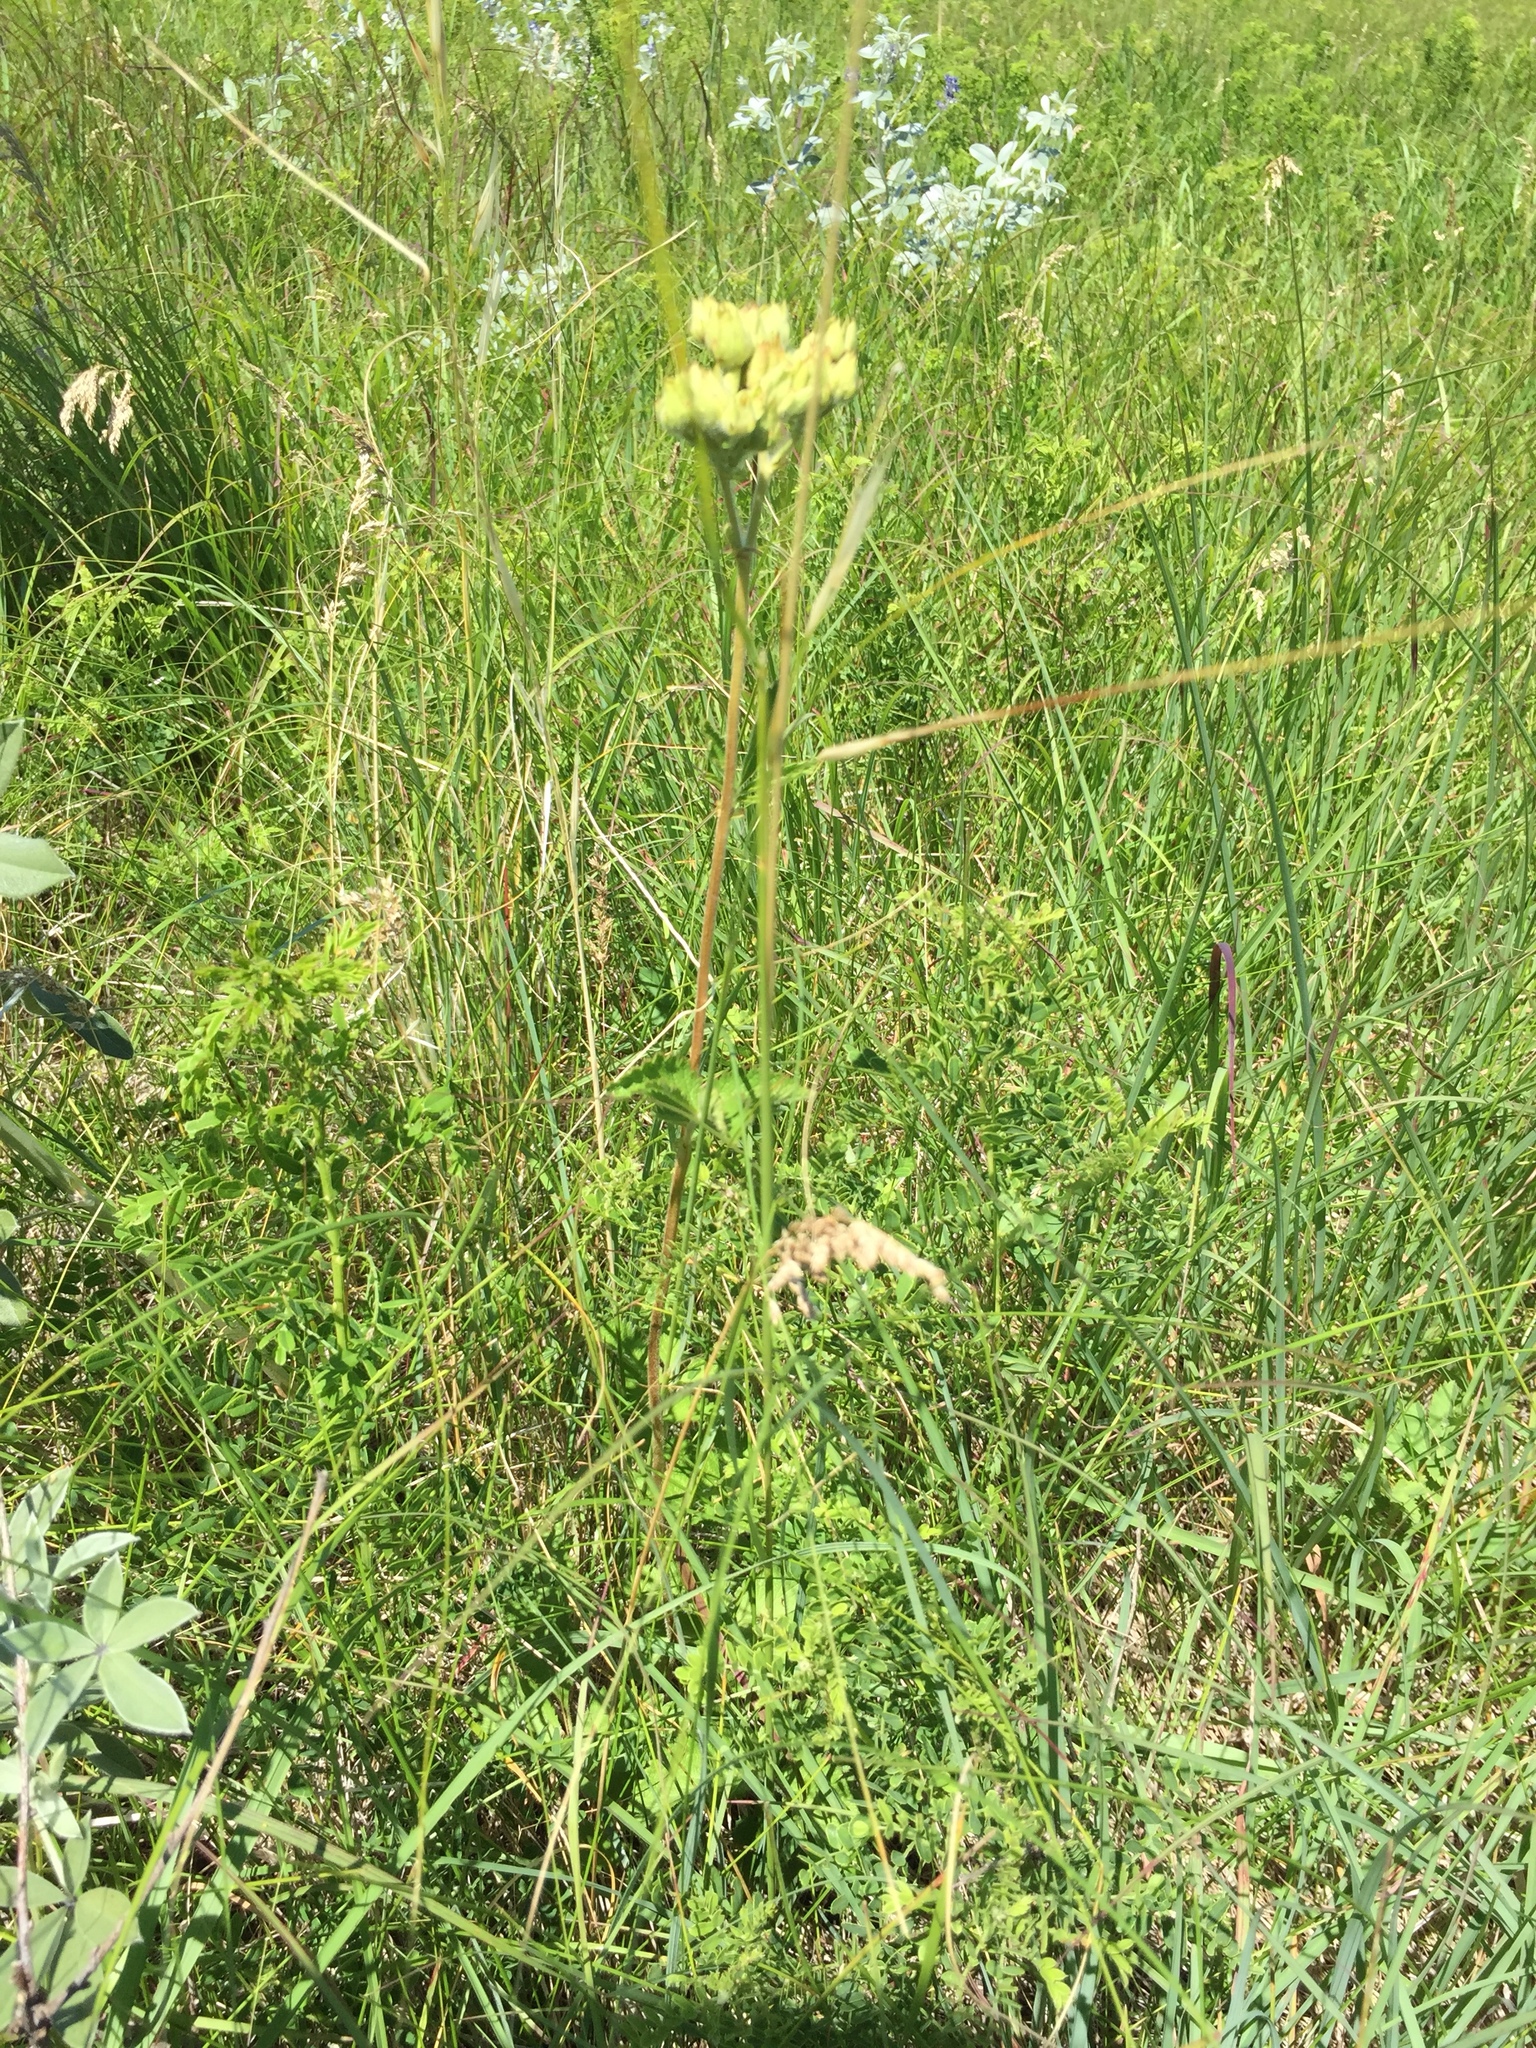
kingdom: Plantae
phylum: Tracheophyta
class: Magnoliopsida
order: Rosales
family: Rosaceae
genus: Drymocallis
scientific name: Drymocallis arguta
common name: Tall cinquefoil
